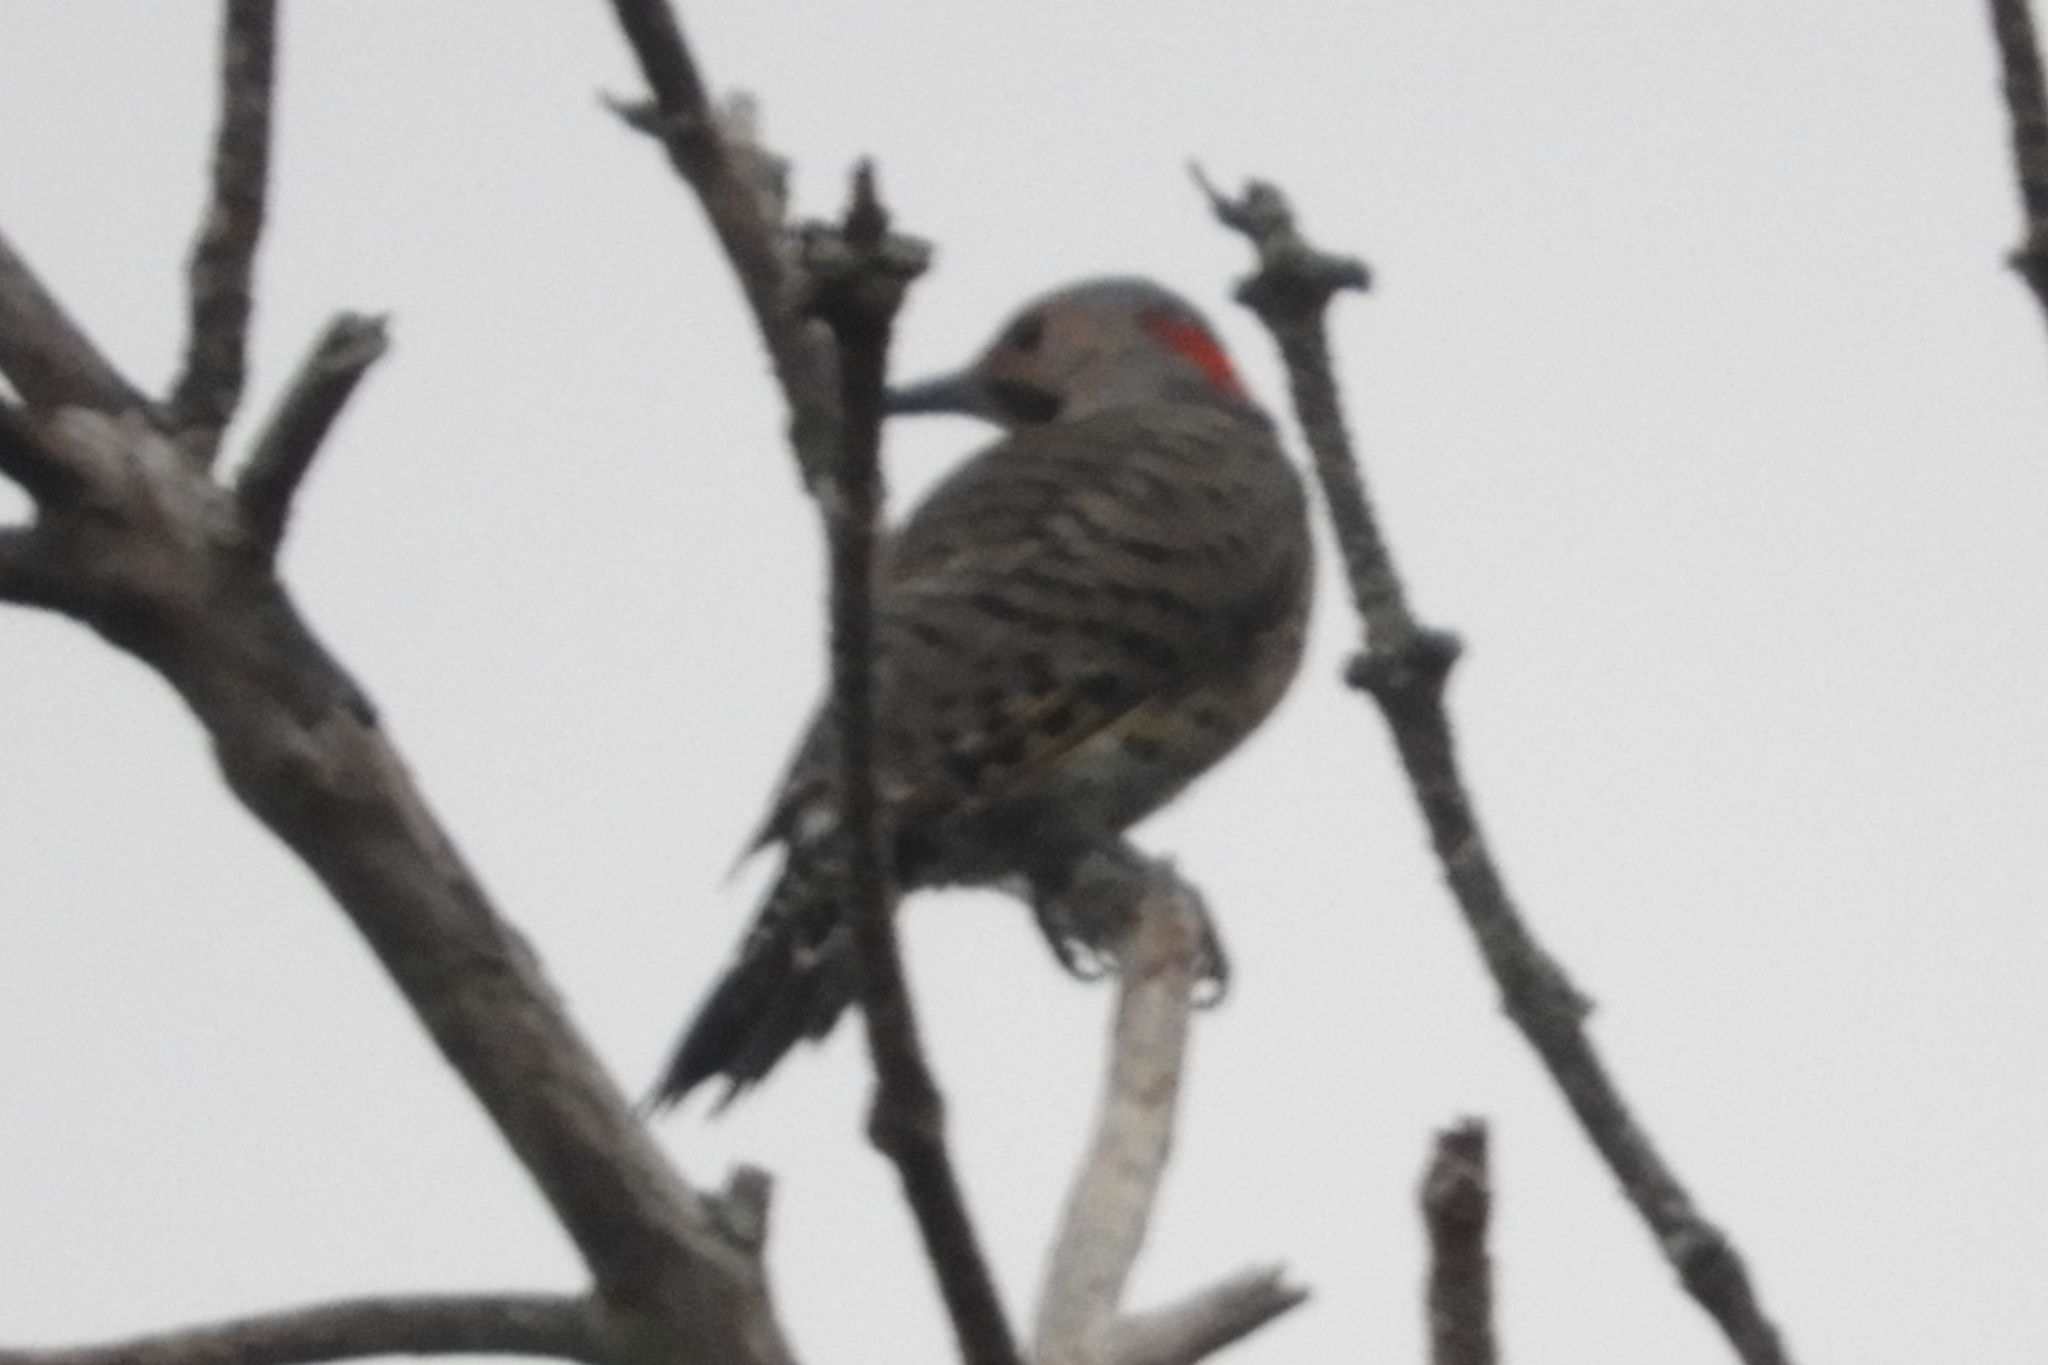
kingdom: Animalia
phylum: Chordata
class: Aves
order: Piciformes
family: Picidae
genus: Colaptes
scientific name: Colaptes auratus
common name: Northern flicker
